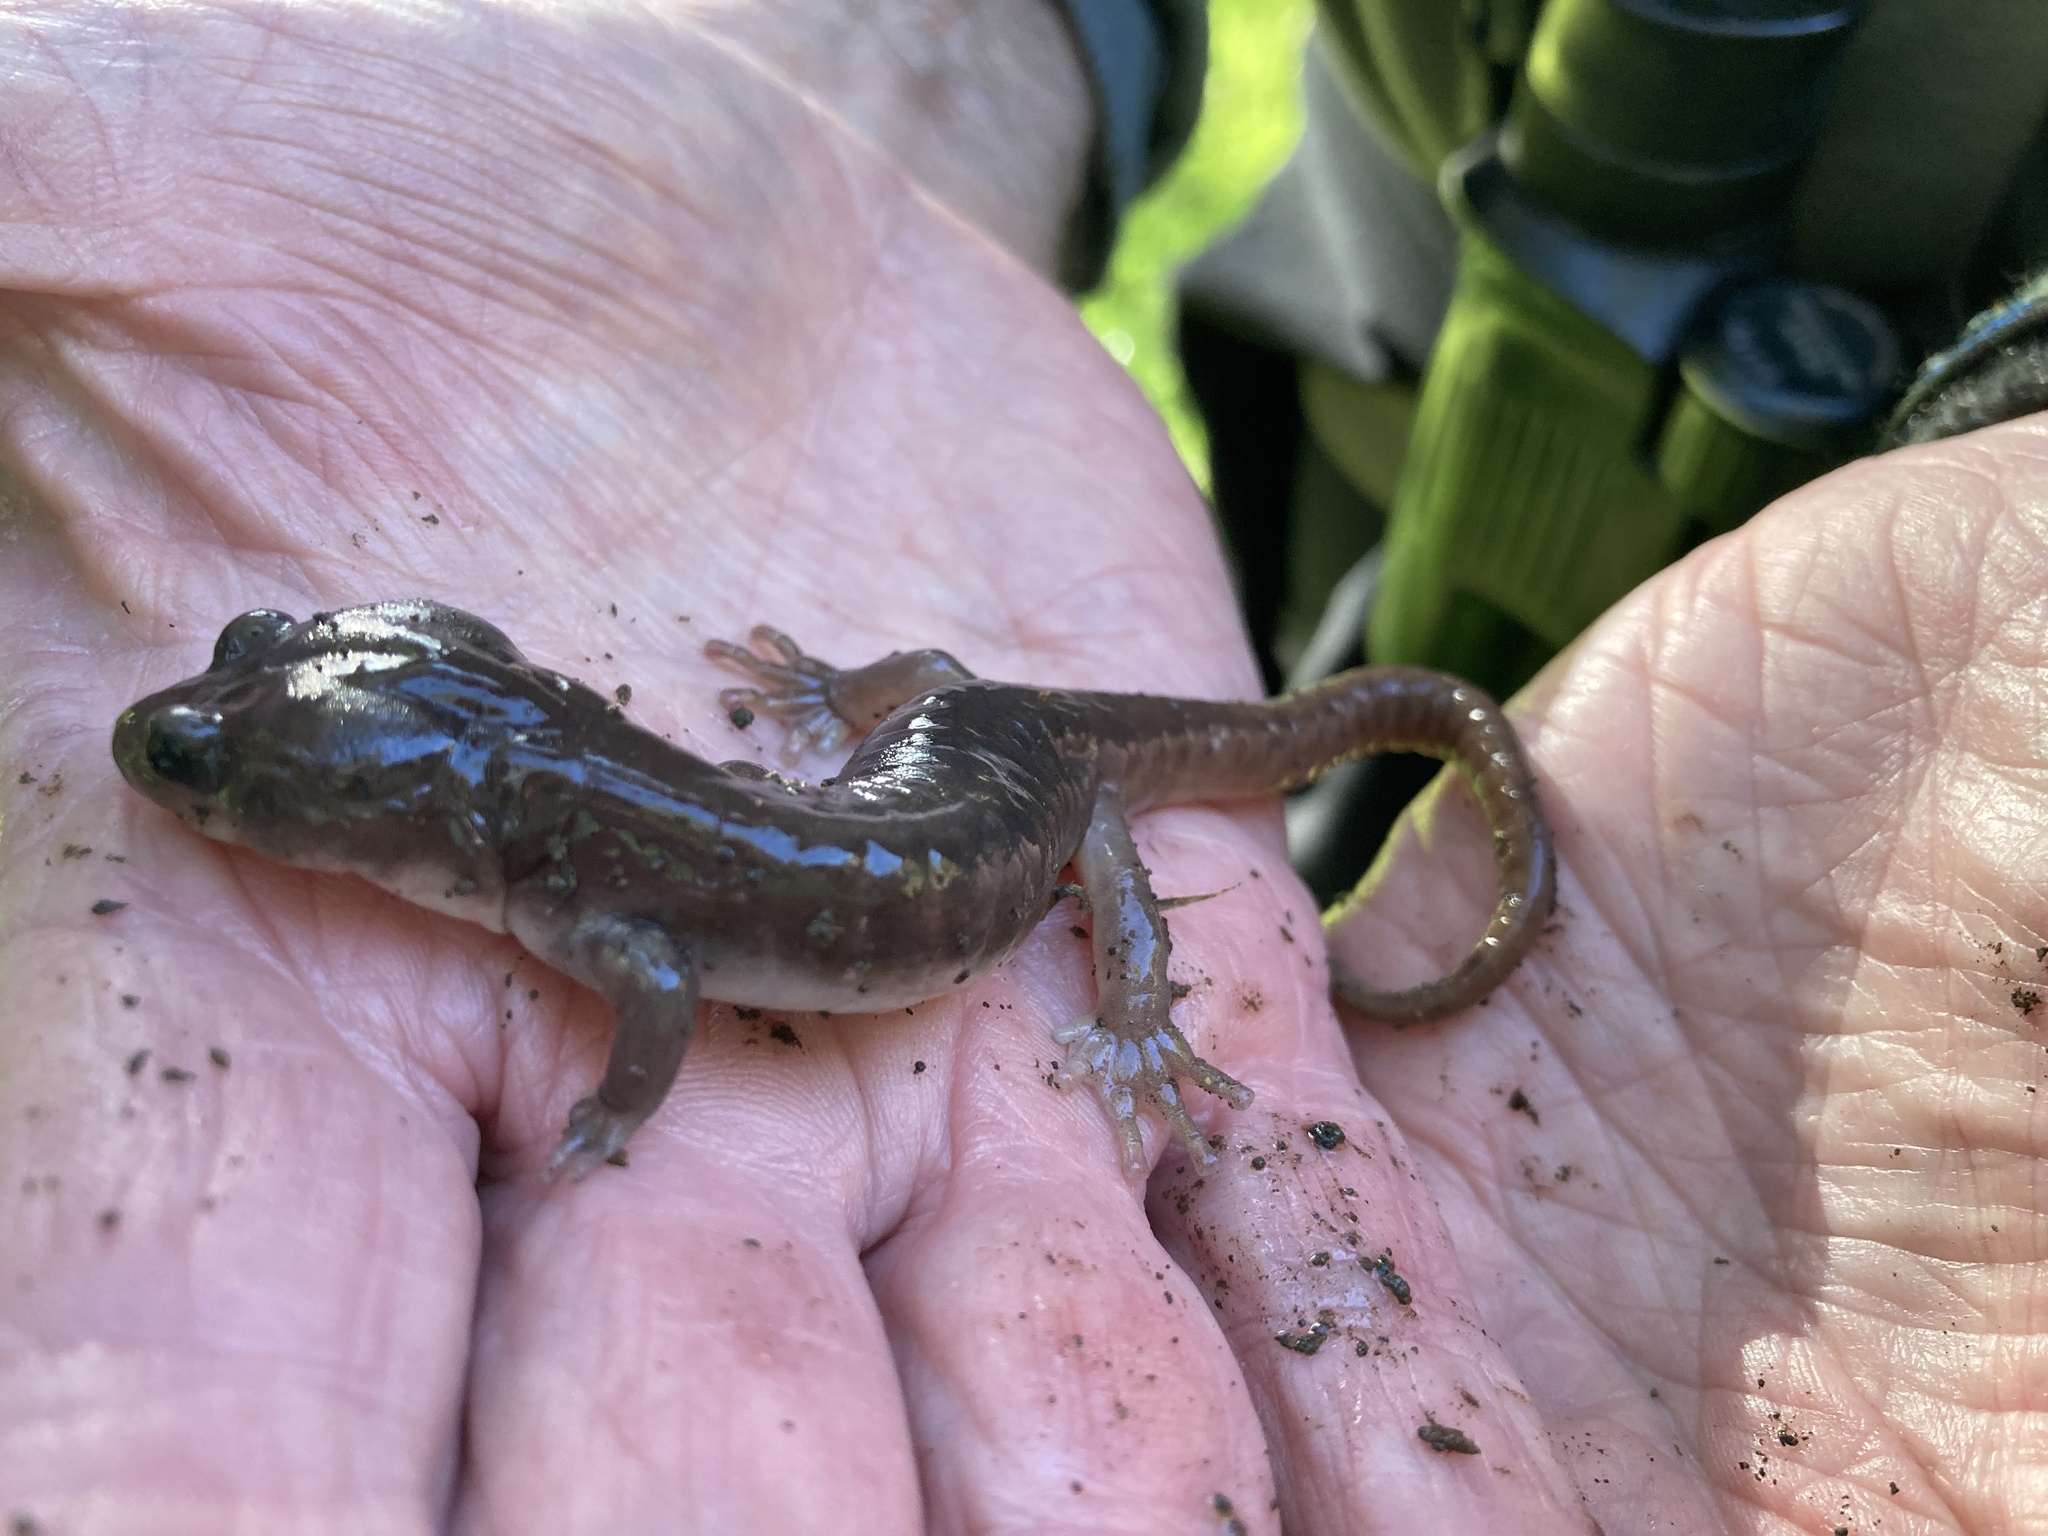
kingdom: Animalia
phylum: Chordata
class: Amphibia
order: Caudata
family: Plethodontidae
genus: Aneides
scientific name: Aneides lugubris
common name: Arboreal salamander
